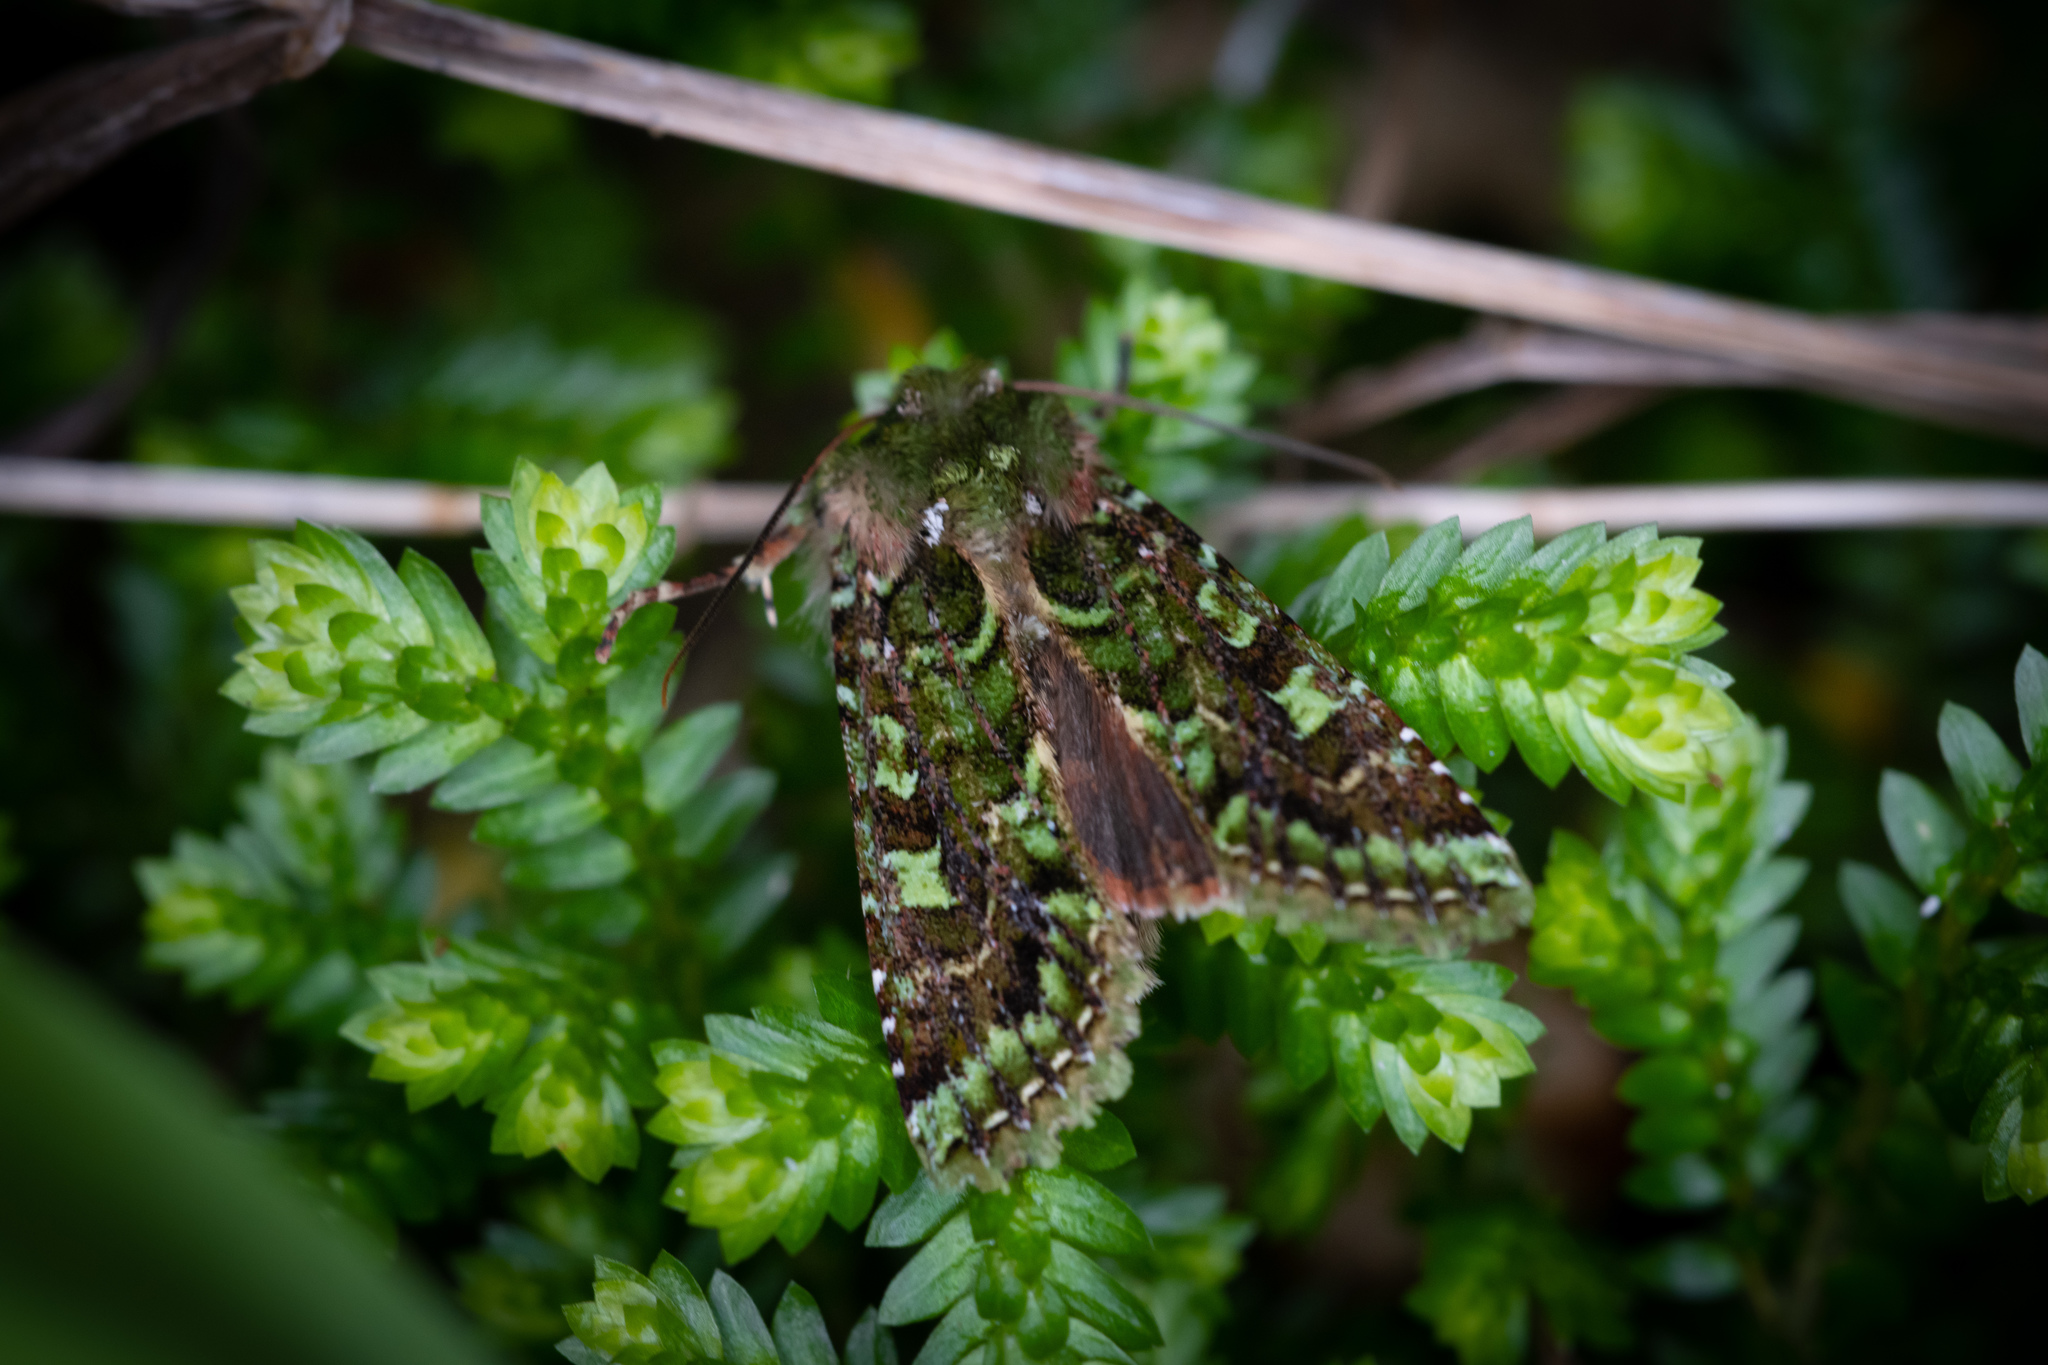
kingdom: Animalia
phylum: Arthropoda
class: Insecta
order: Lepidoptera
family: Noctuidae
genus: Feredayia
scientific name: Feredayia grammosa
